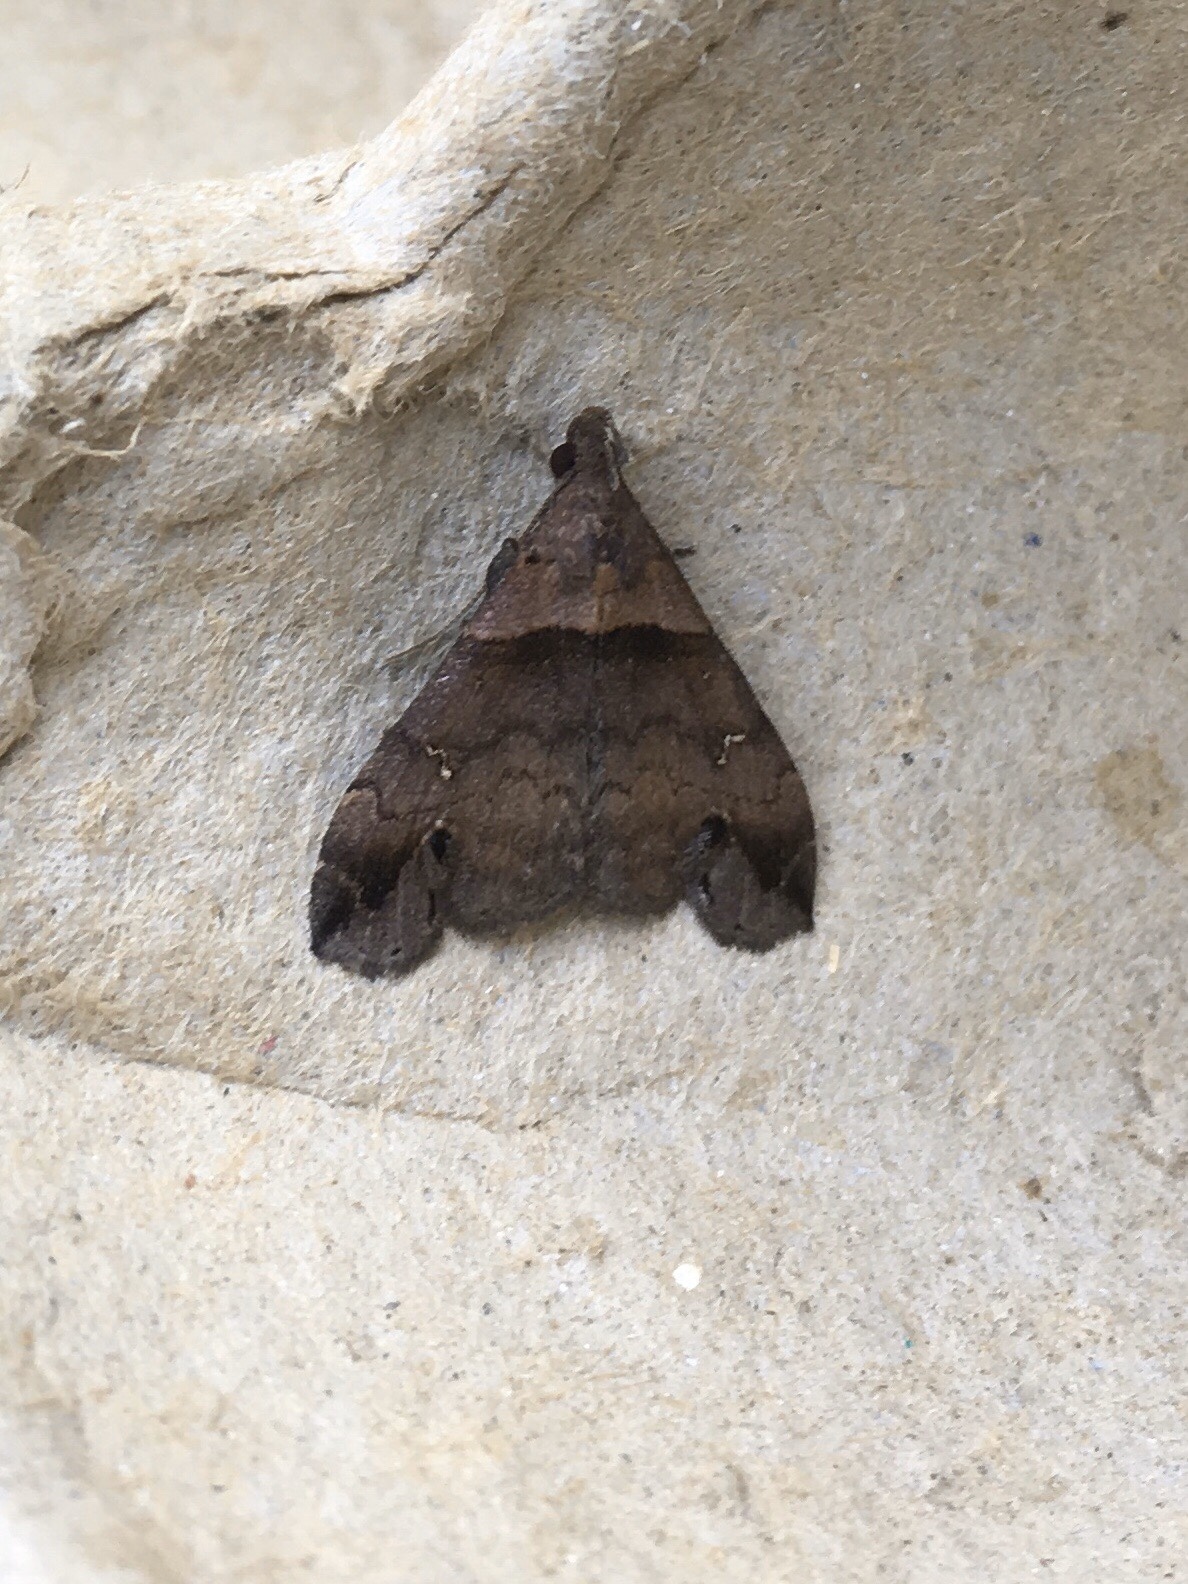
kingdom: Animalia
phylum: Arthropoda
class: Insecta
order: Lepidoptera
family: Erebidae
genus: Lascoria
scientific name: Lascoria ambigualis
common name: Ambiguous moth
